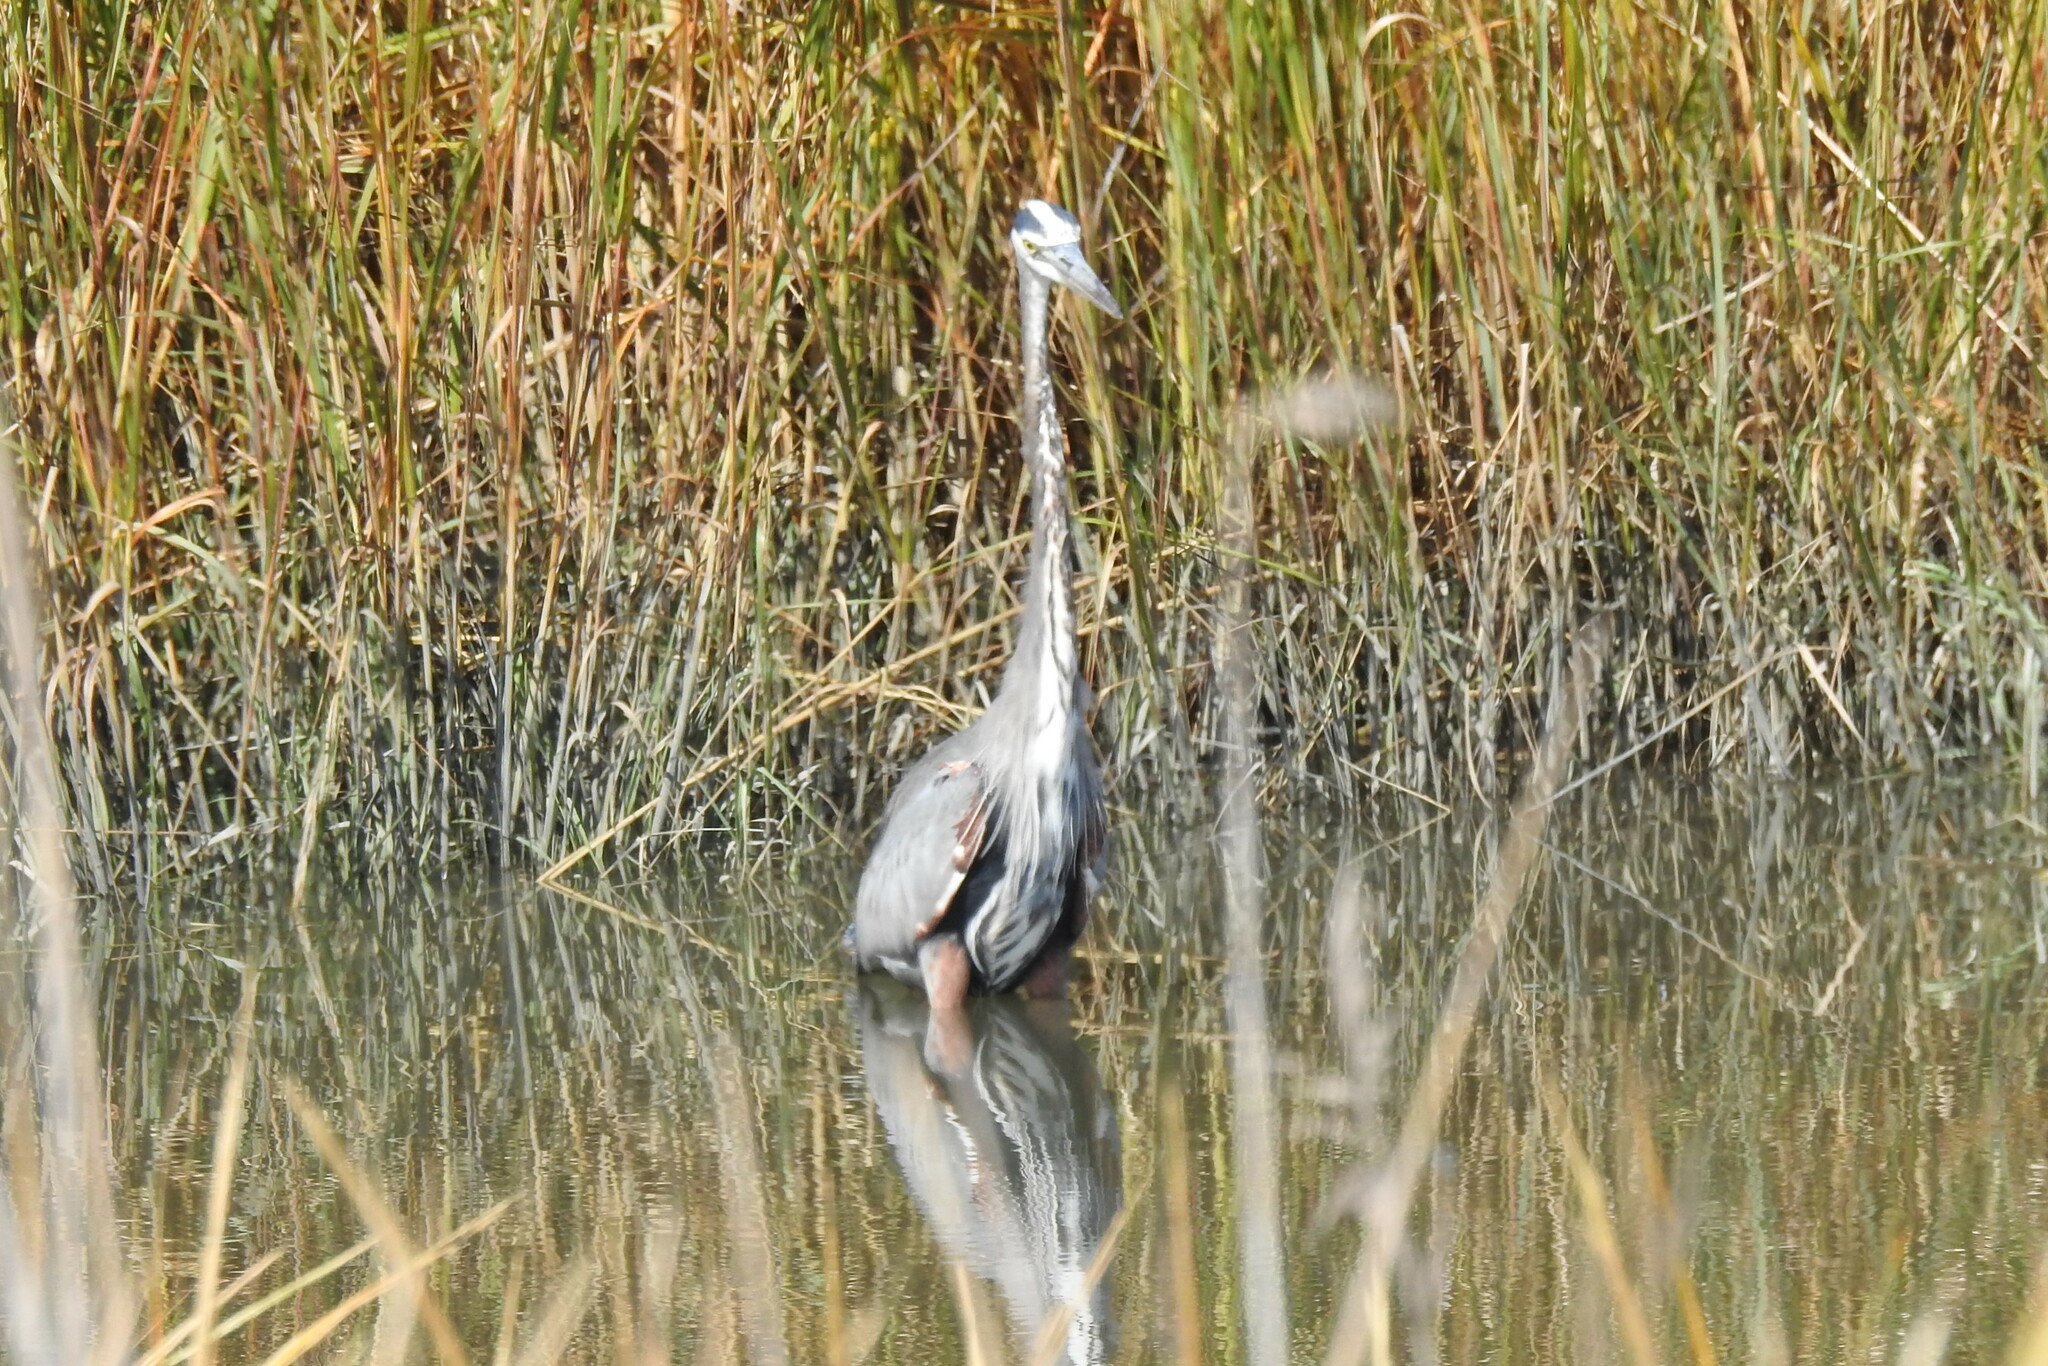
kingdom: Animalia
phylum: Chordata
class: Aves
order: Pelecaniformes
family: Ardeidae
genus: Ardea
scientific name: Ardea herodias
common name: Great blue heron
